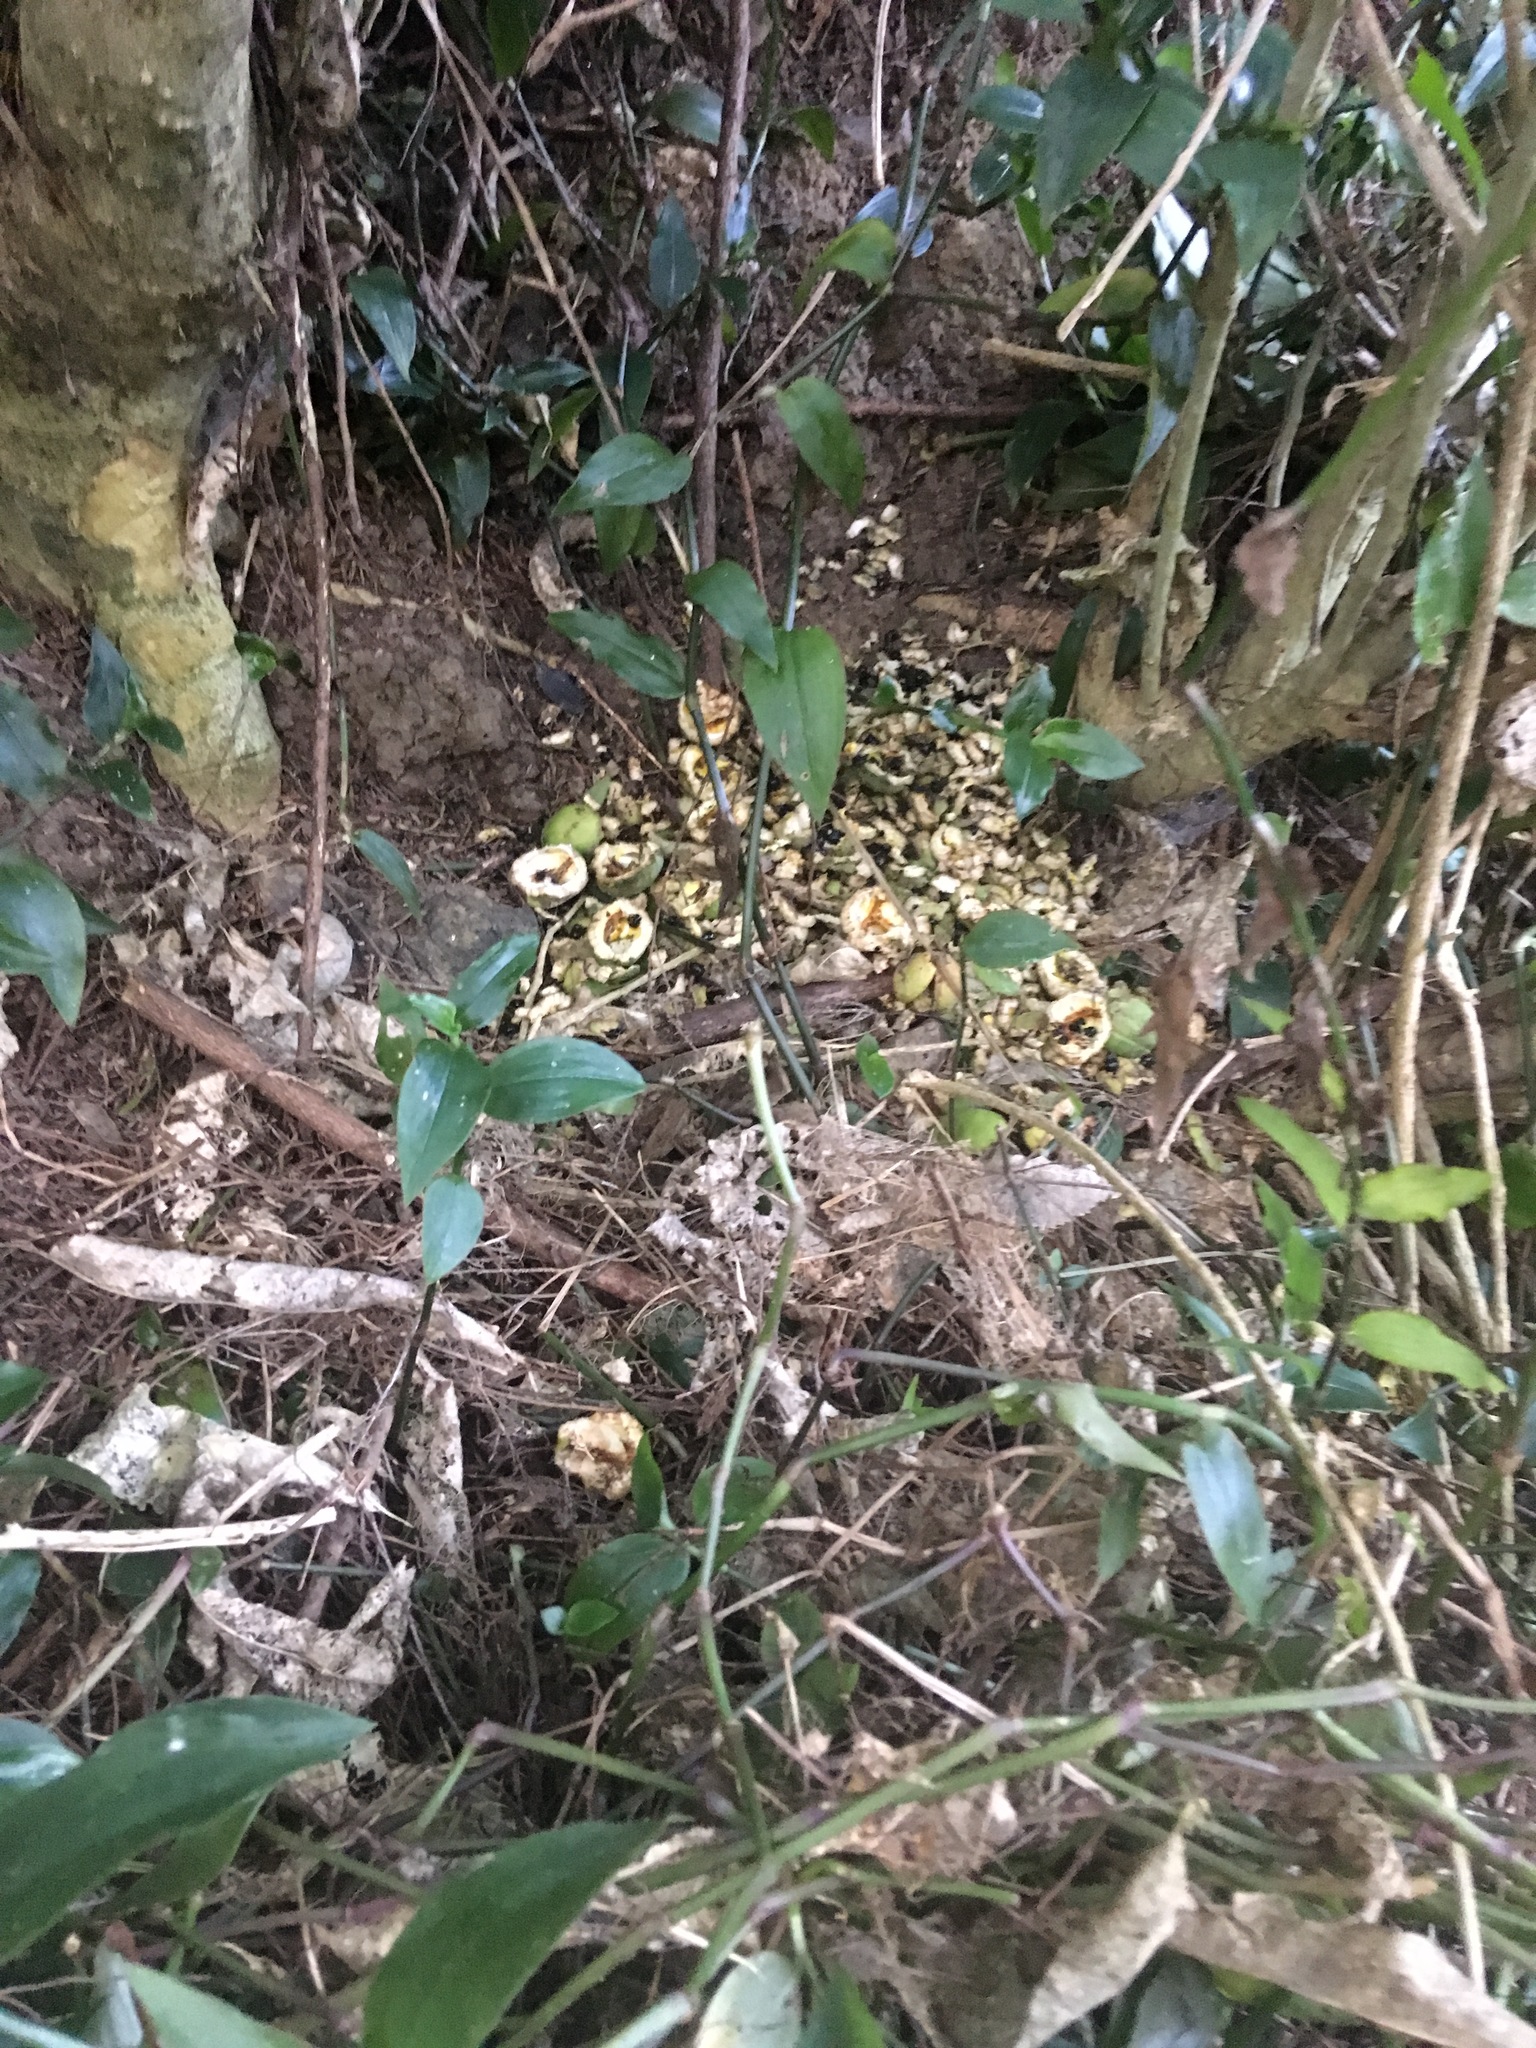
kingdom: Plantae
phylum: Tracheophyta
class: Magnoliopsida
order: Apiales
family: Pittosporaceae
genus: Pittosporum
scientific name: Pittosporum crassifolium
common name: Karo
